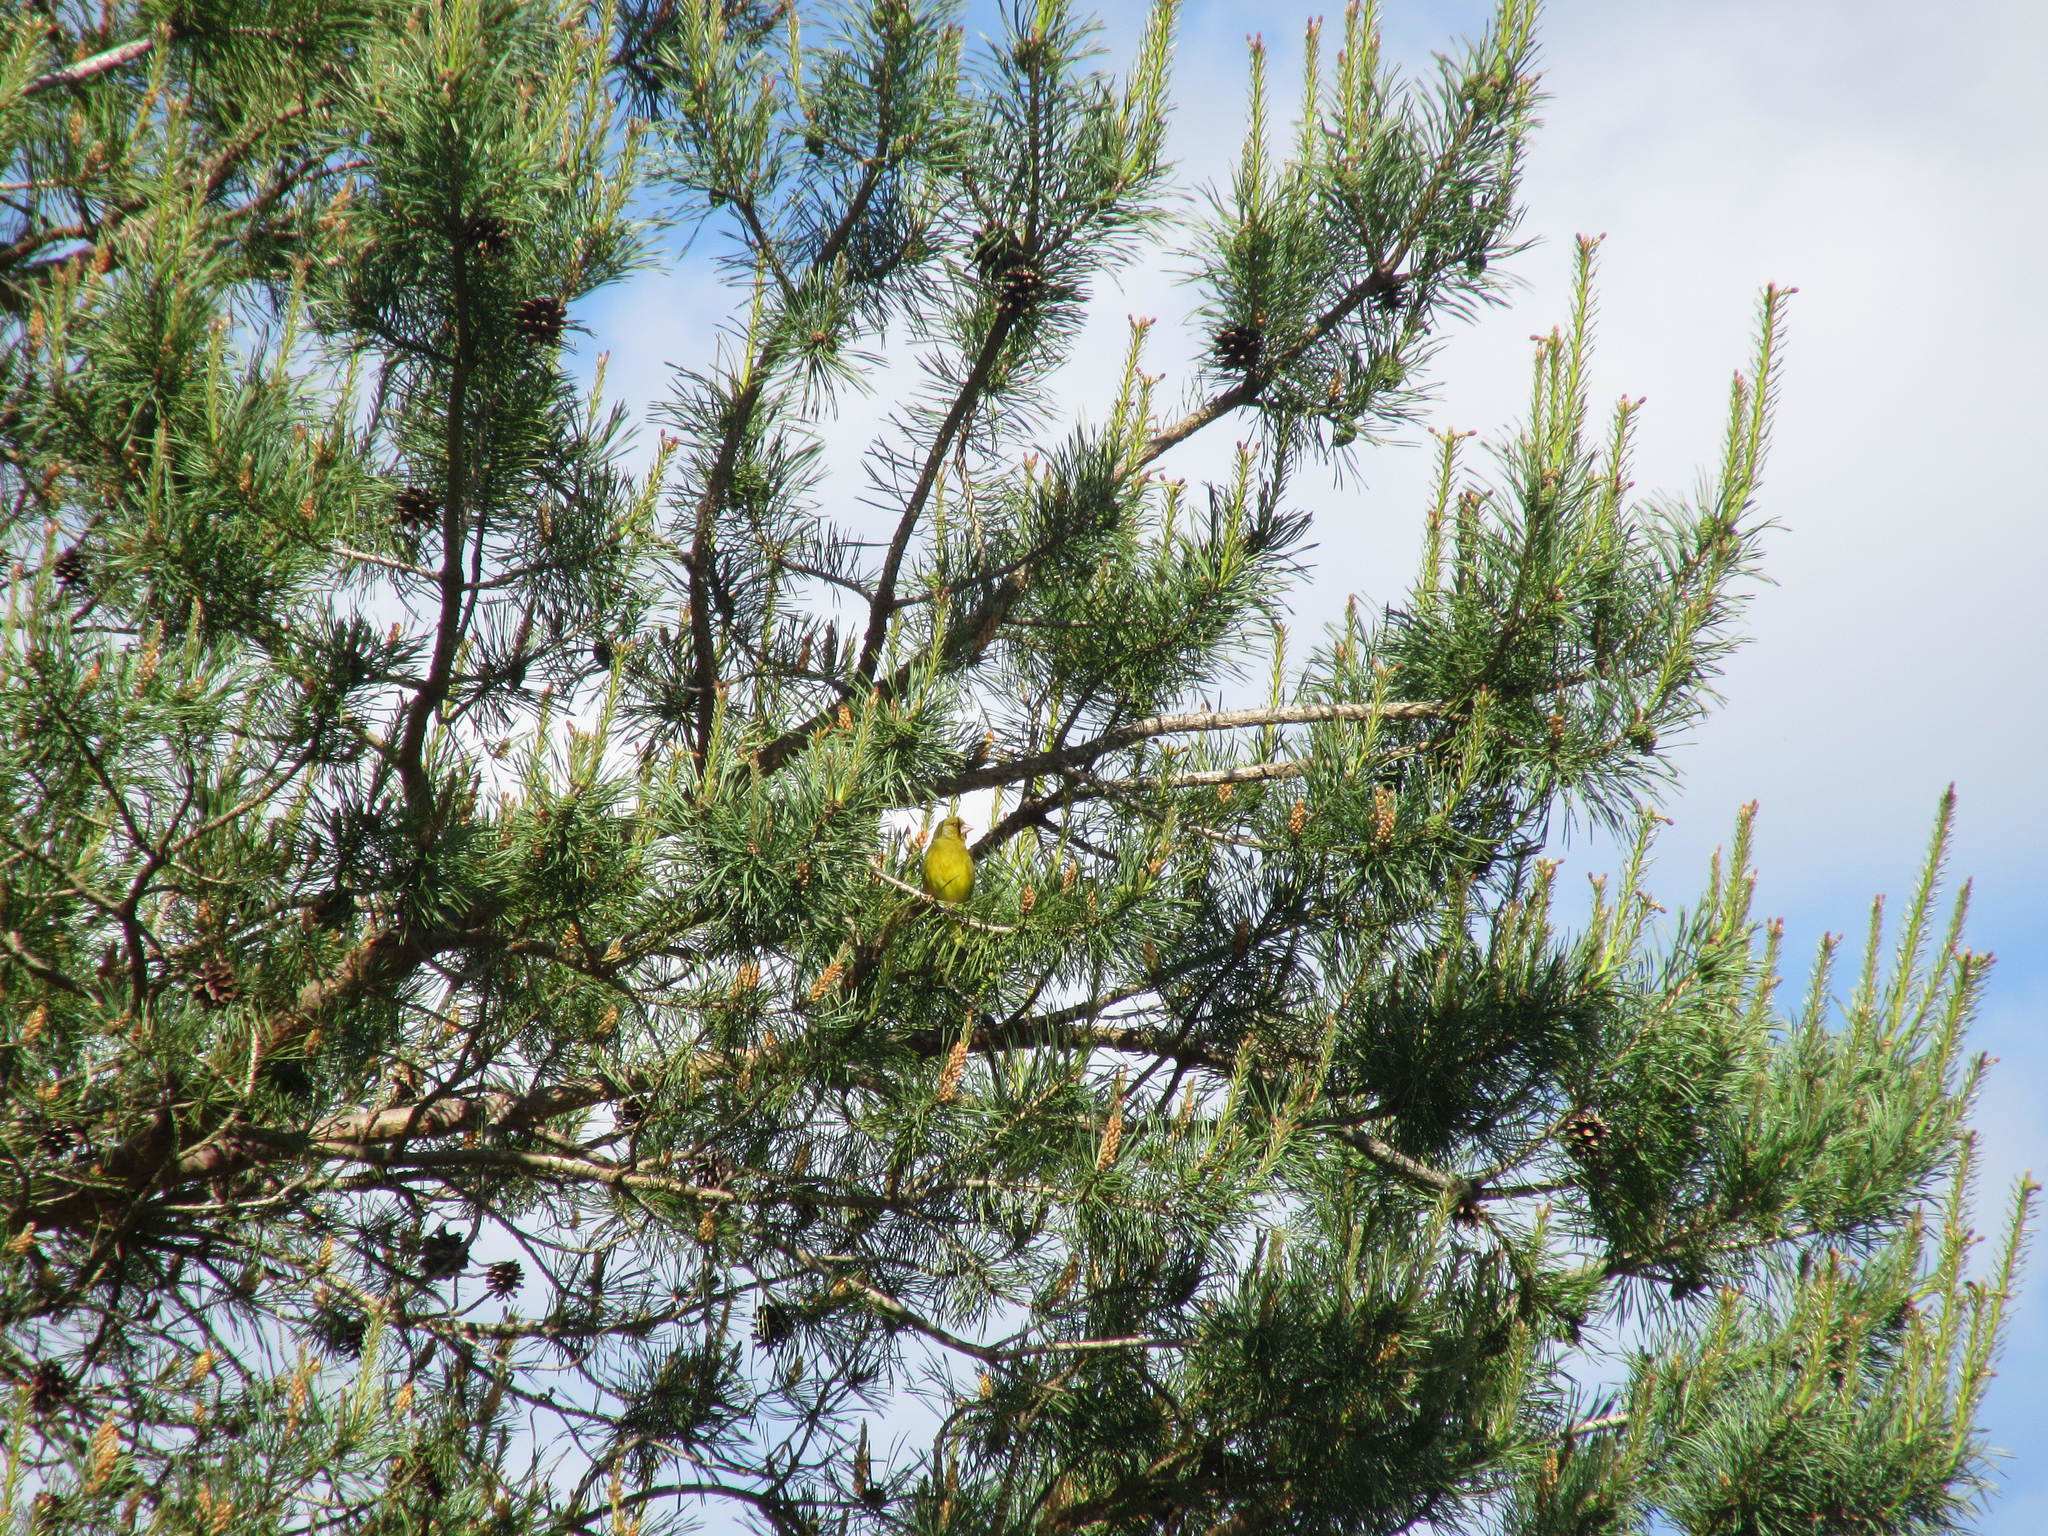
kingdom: Plantae
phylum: Tracheophyta
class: Liliopsida
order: Poales
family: Poaceae
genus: Chloris
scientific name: Chloris chloris
